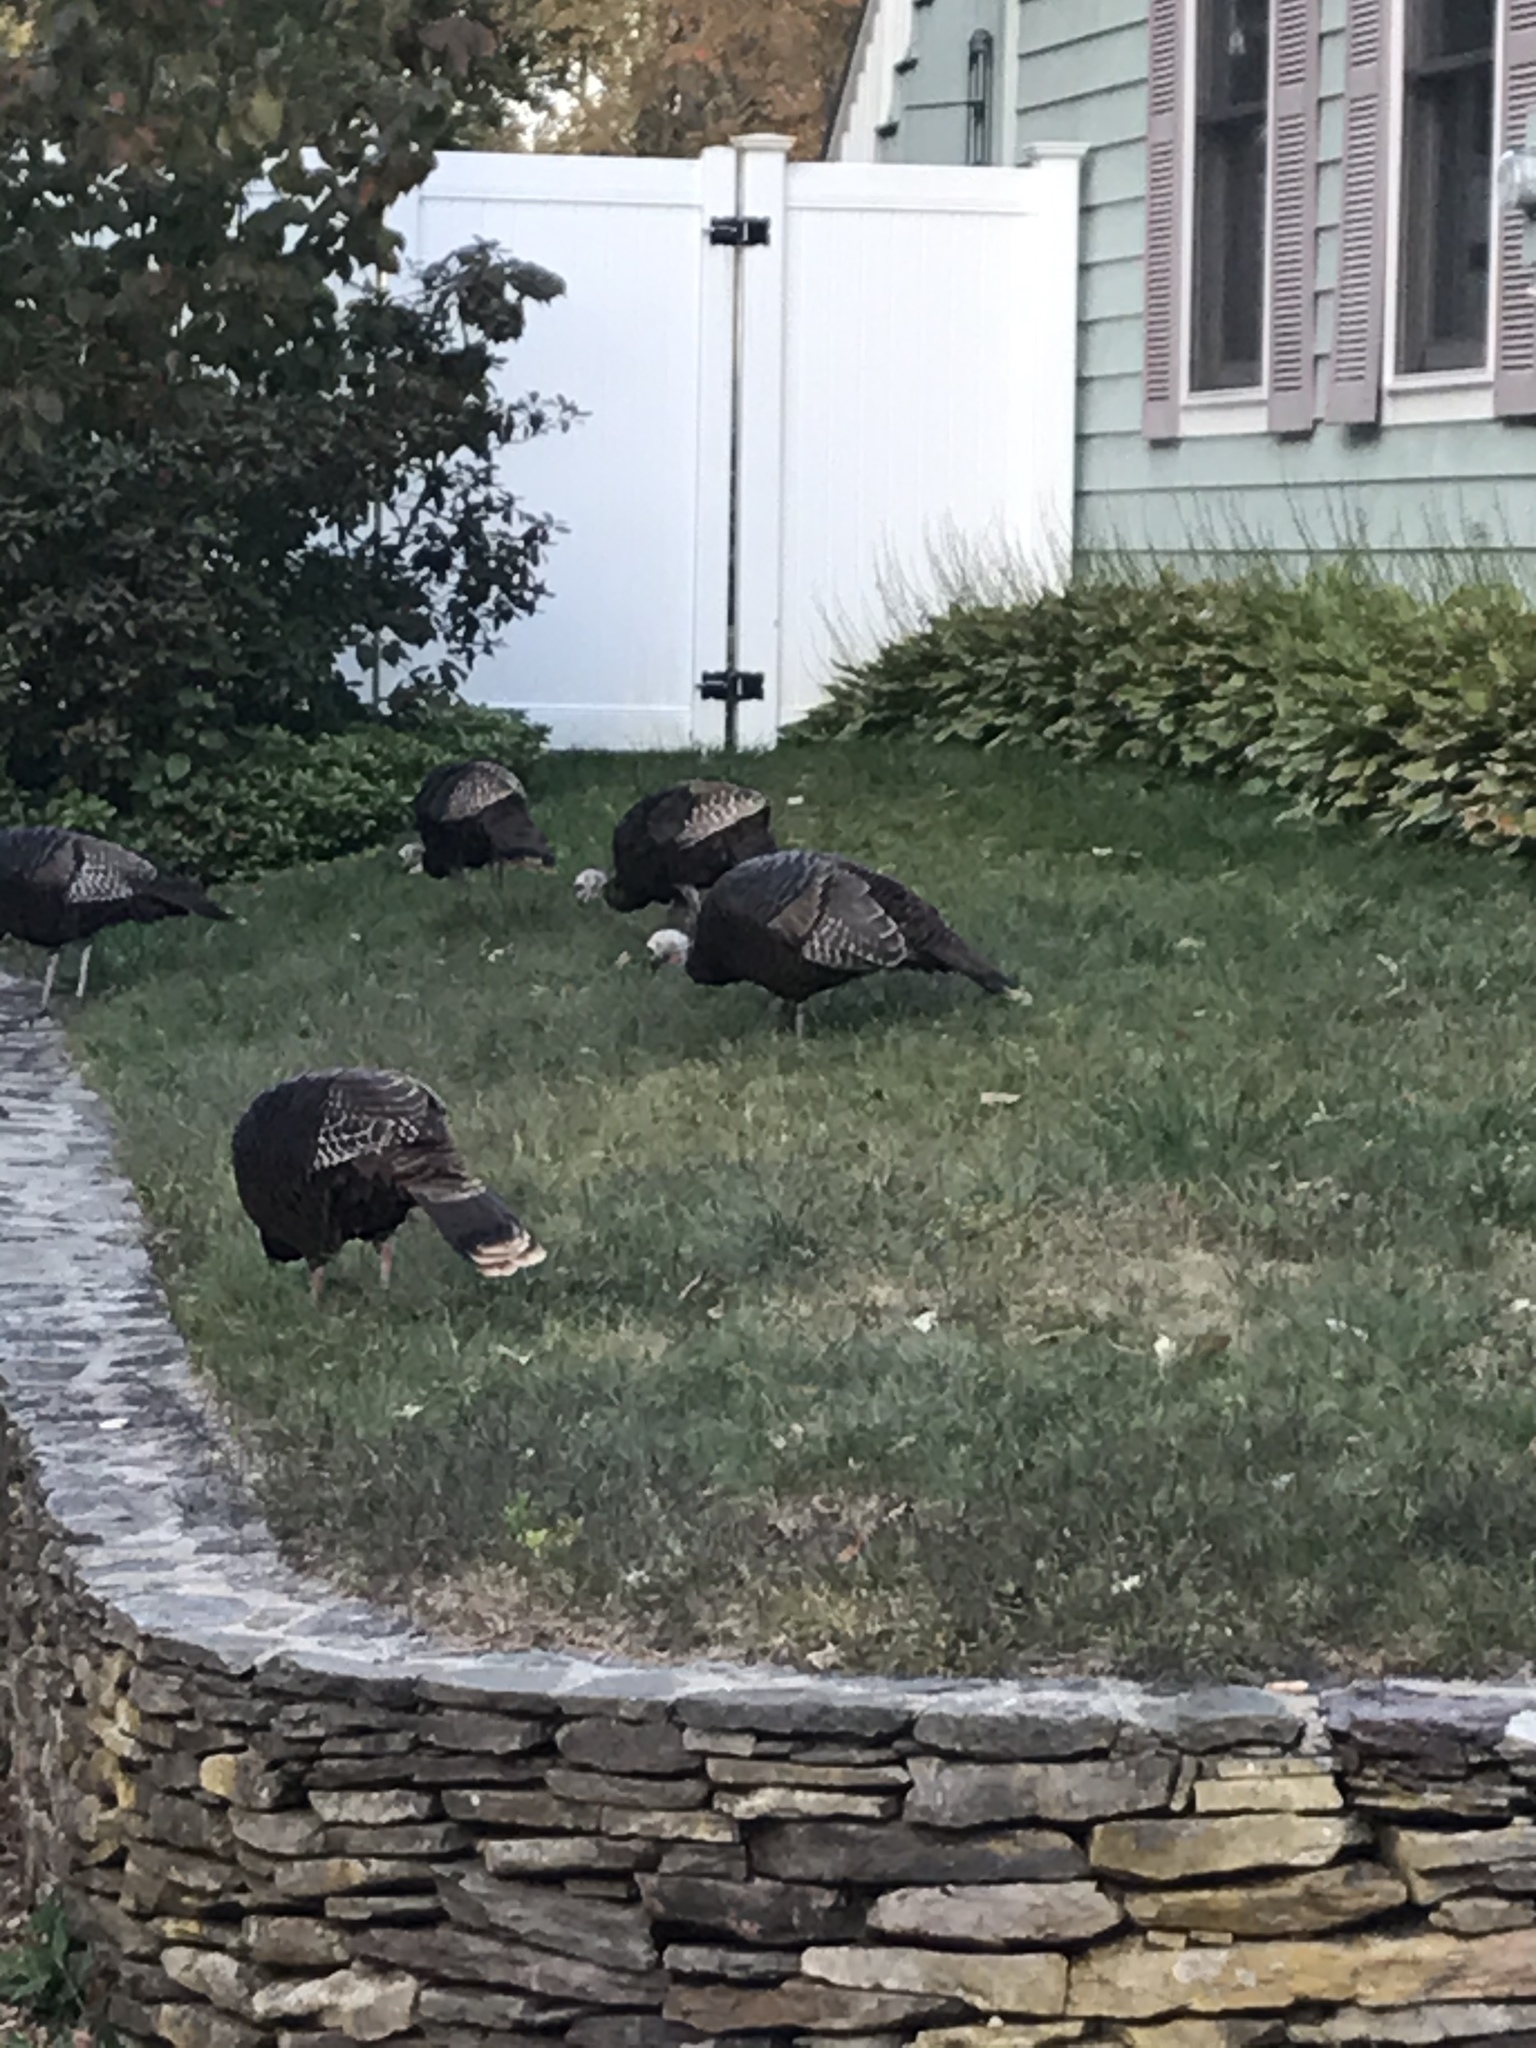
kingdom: Animalia
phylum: Chordata
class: Aves
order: Galliformes
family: Phasianidae
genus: Meleagris
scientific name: Meleagris gallopavo
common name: Wild turkey
